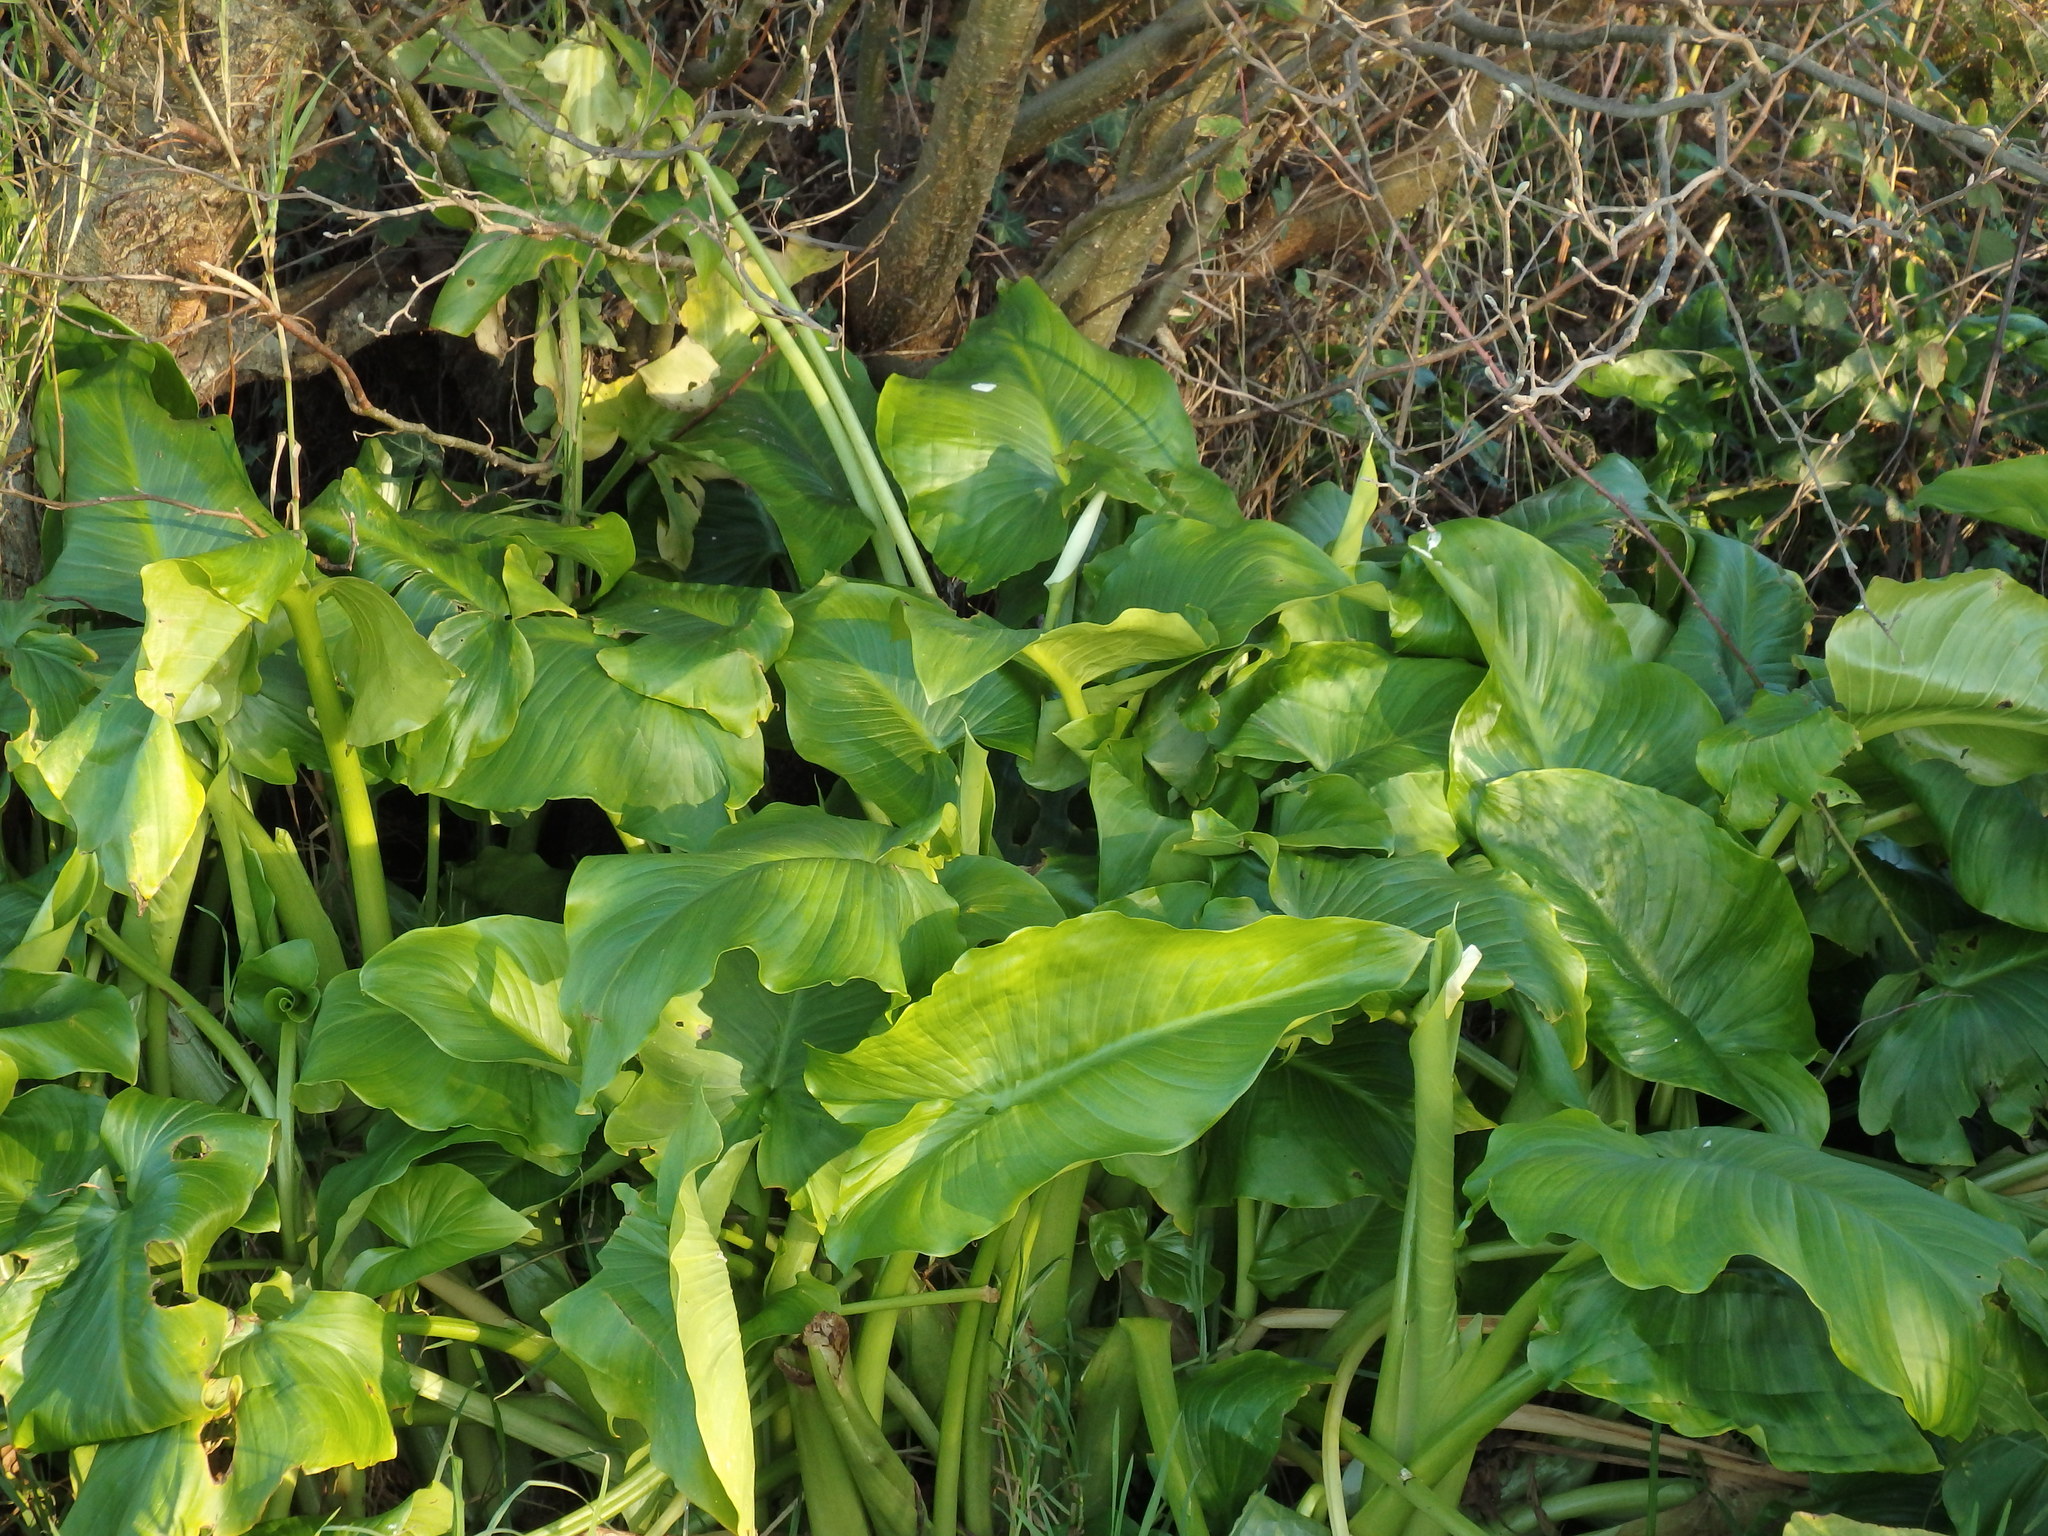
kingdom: Plantae
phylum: Tracheophyta
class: Liliopsida
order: Alismatales
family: Araceae
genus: Zantedeschia
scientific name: Zantedeschia aethiopica
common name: Altar-lily
